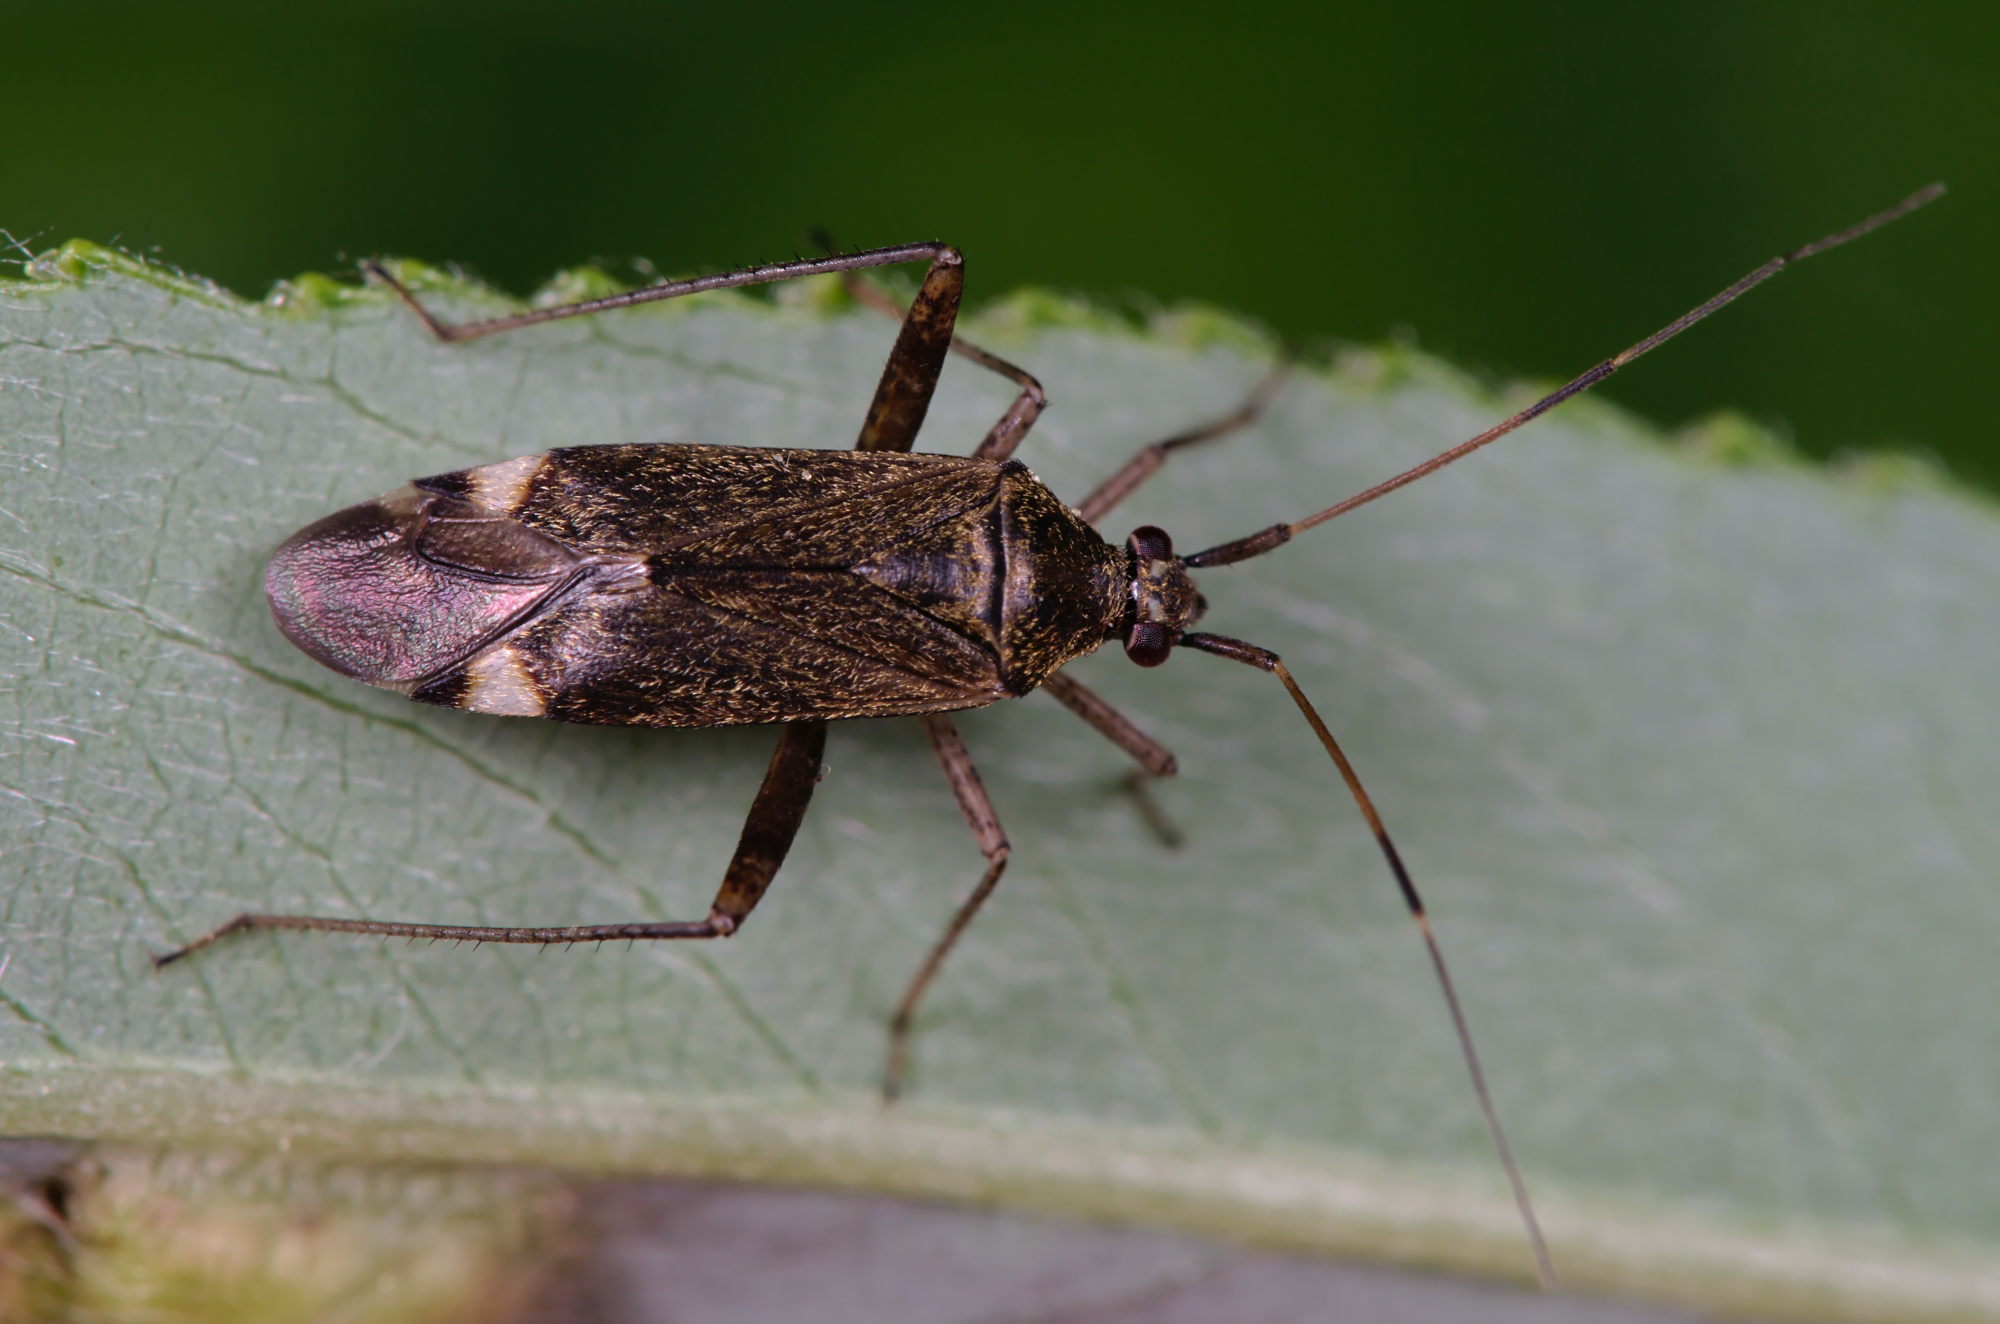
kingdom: Animalia
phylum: Arthropoda
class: Insecta
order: Hemiptera
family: Miridae
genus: Closterotomus
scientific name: Closterotomus fulvomaculatus
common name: Spotted plant bug
